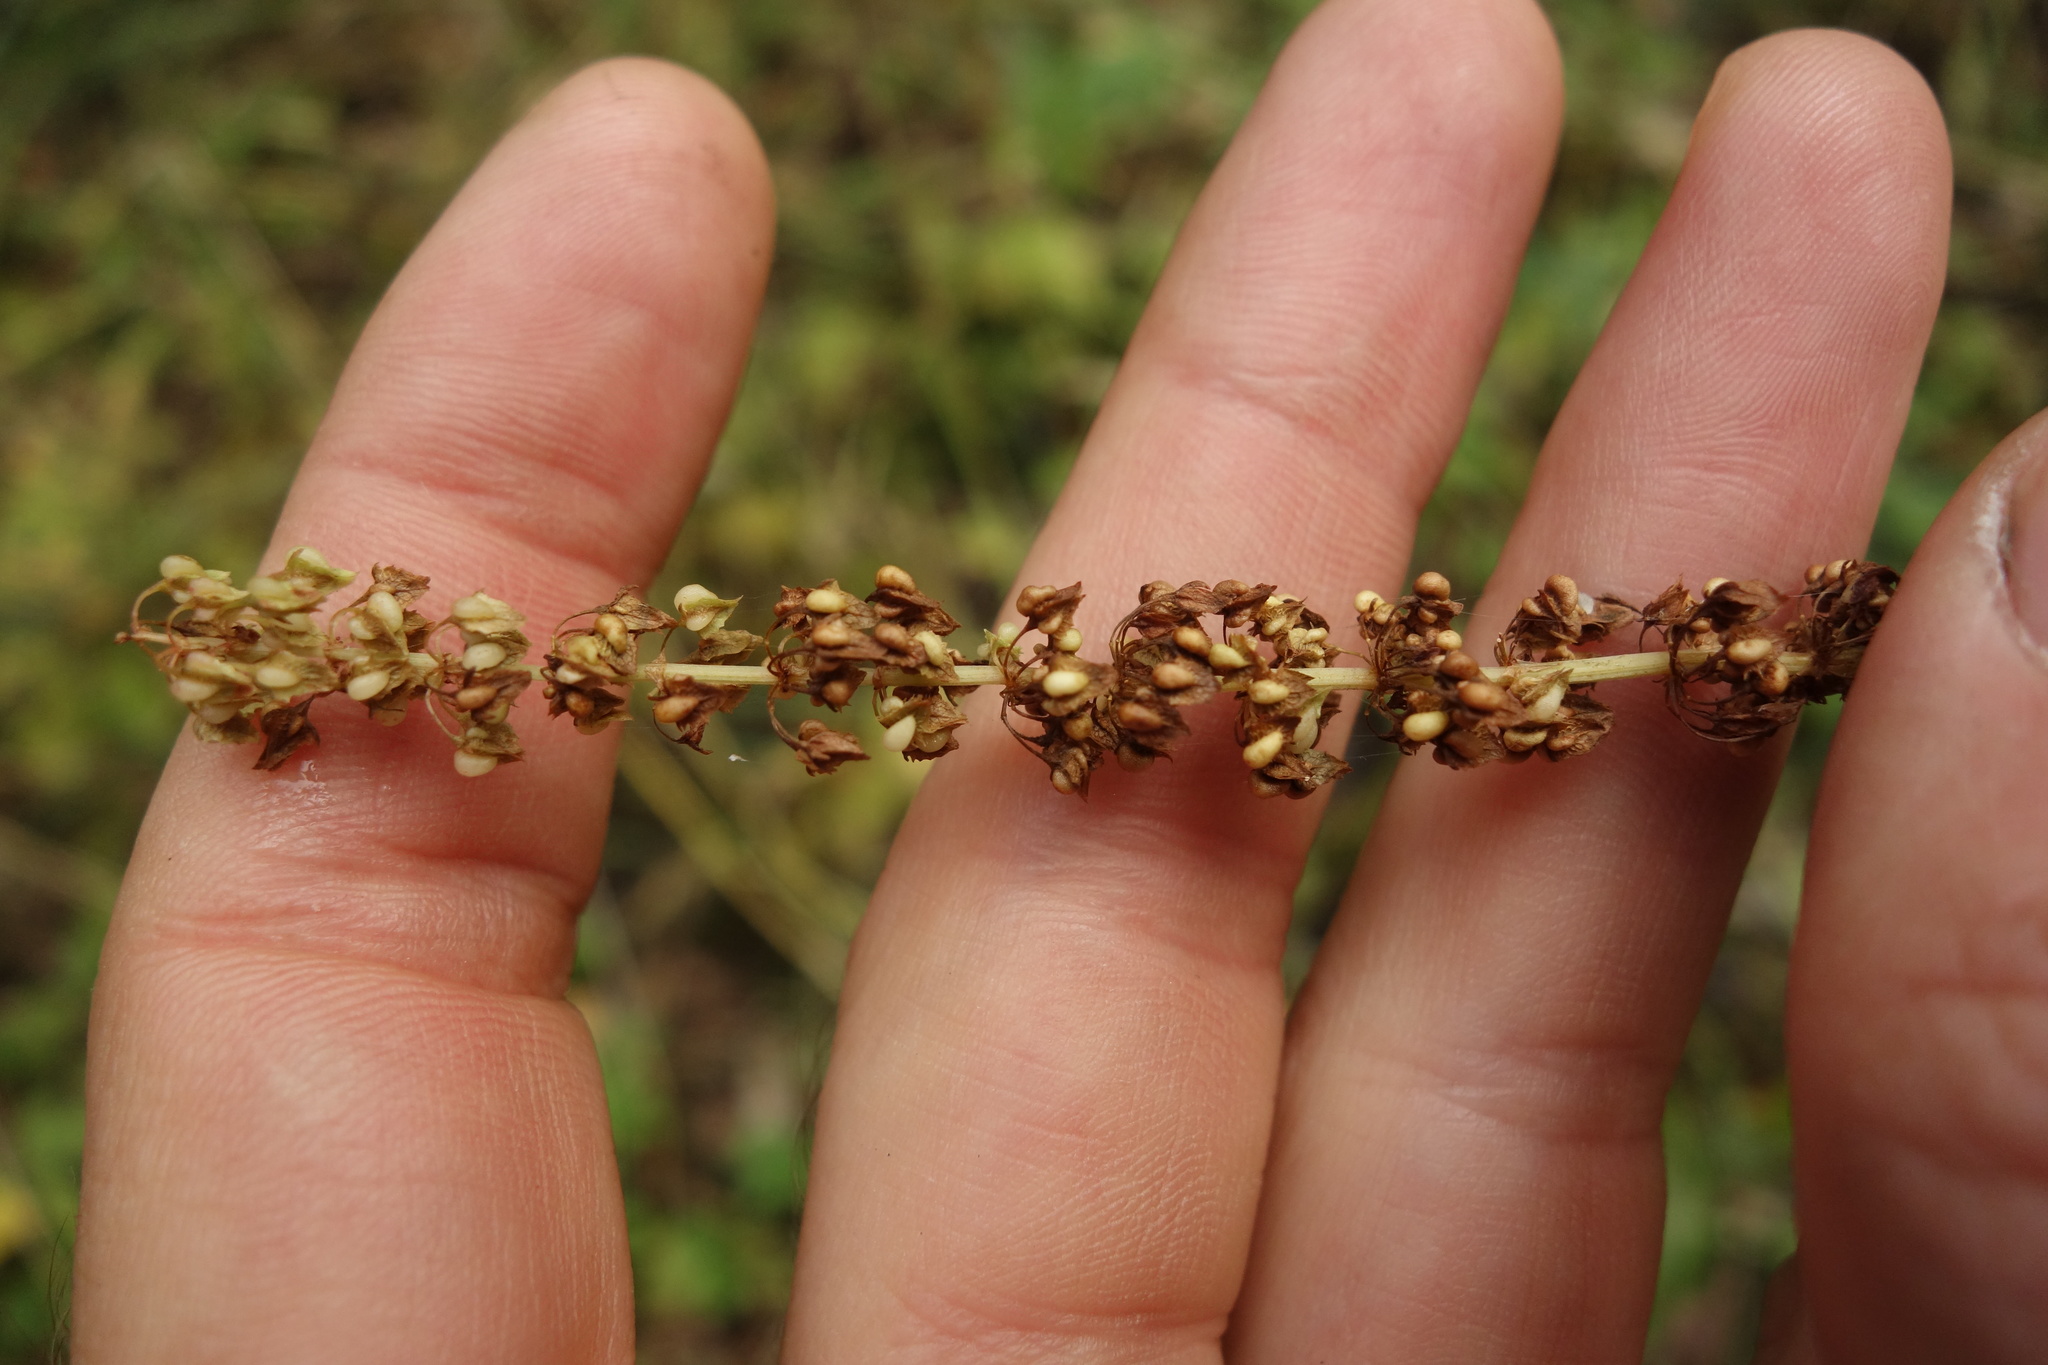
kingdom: Plantae
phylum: Tracheophyta
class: Magnoliopsida
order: Caryophyllales
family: Polygonaceae
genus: Rumex
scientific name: Rumex obtusifolius
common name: Bitter dock
